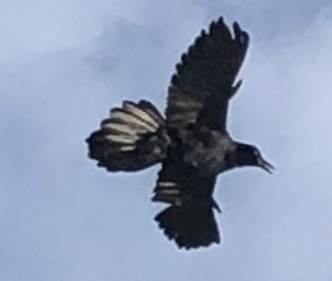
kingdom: Animalia
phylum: Chordata
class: Aves
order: Passeriformes
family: Icteridae
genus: Quiscalus
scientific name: Quiscalus mexicanus
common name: Great-tailed grackle
